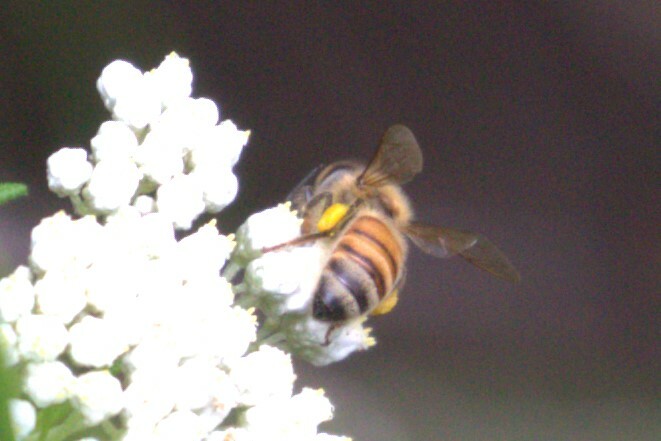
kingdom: Animalia
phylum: Arthropoda
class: Insecta
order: Hymenoptera
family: Apidae
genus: Apis
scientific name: Apis mellifera
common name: Honey bee
